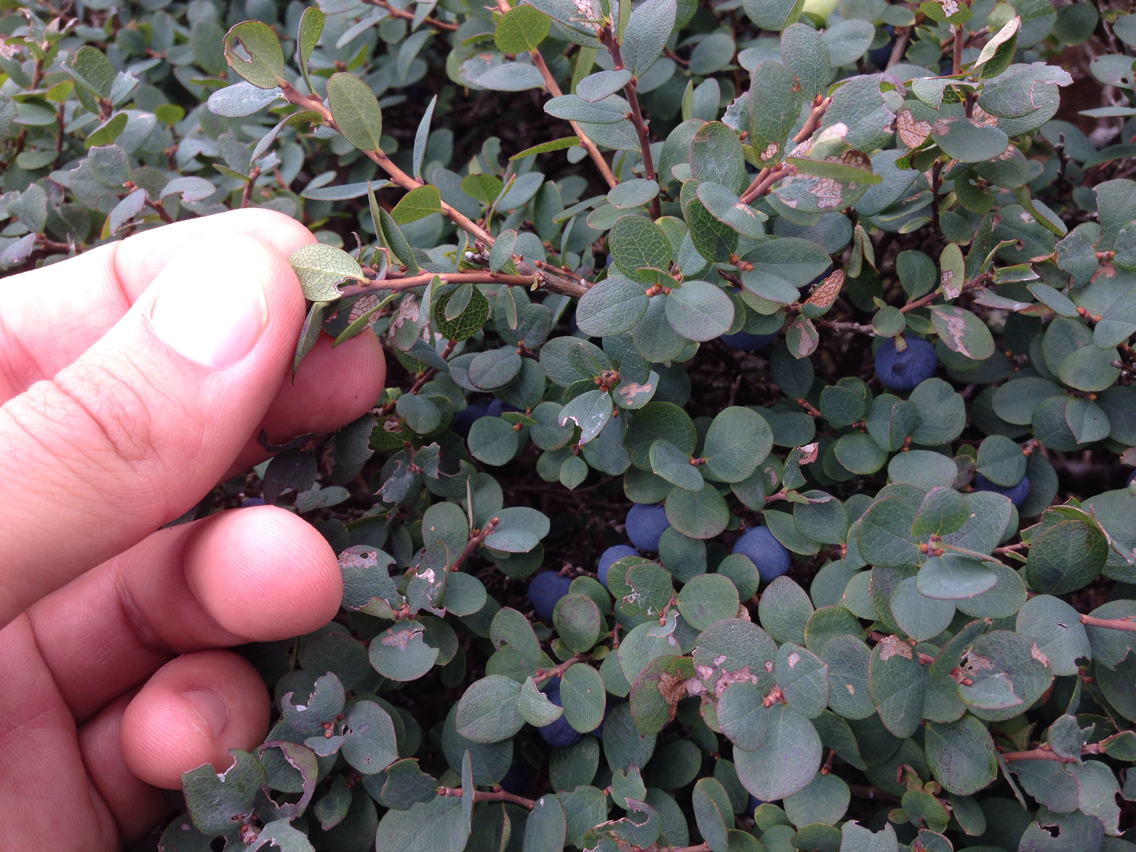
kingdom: Plantae
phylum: Tracheophyta
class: Magnoliopsida
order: Ericales
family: Ericaceae
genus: Vaccinium
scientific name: Vaccinium uliginosum
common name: Bog bilberry
